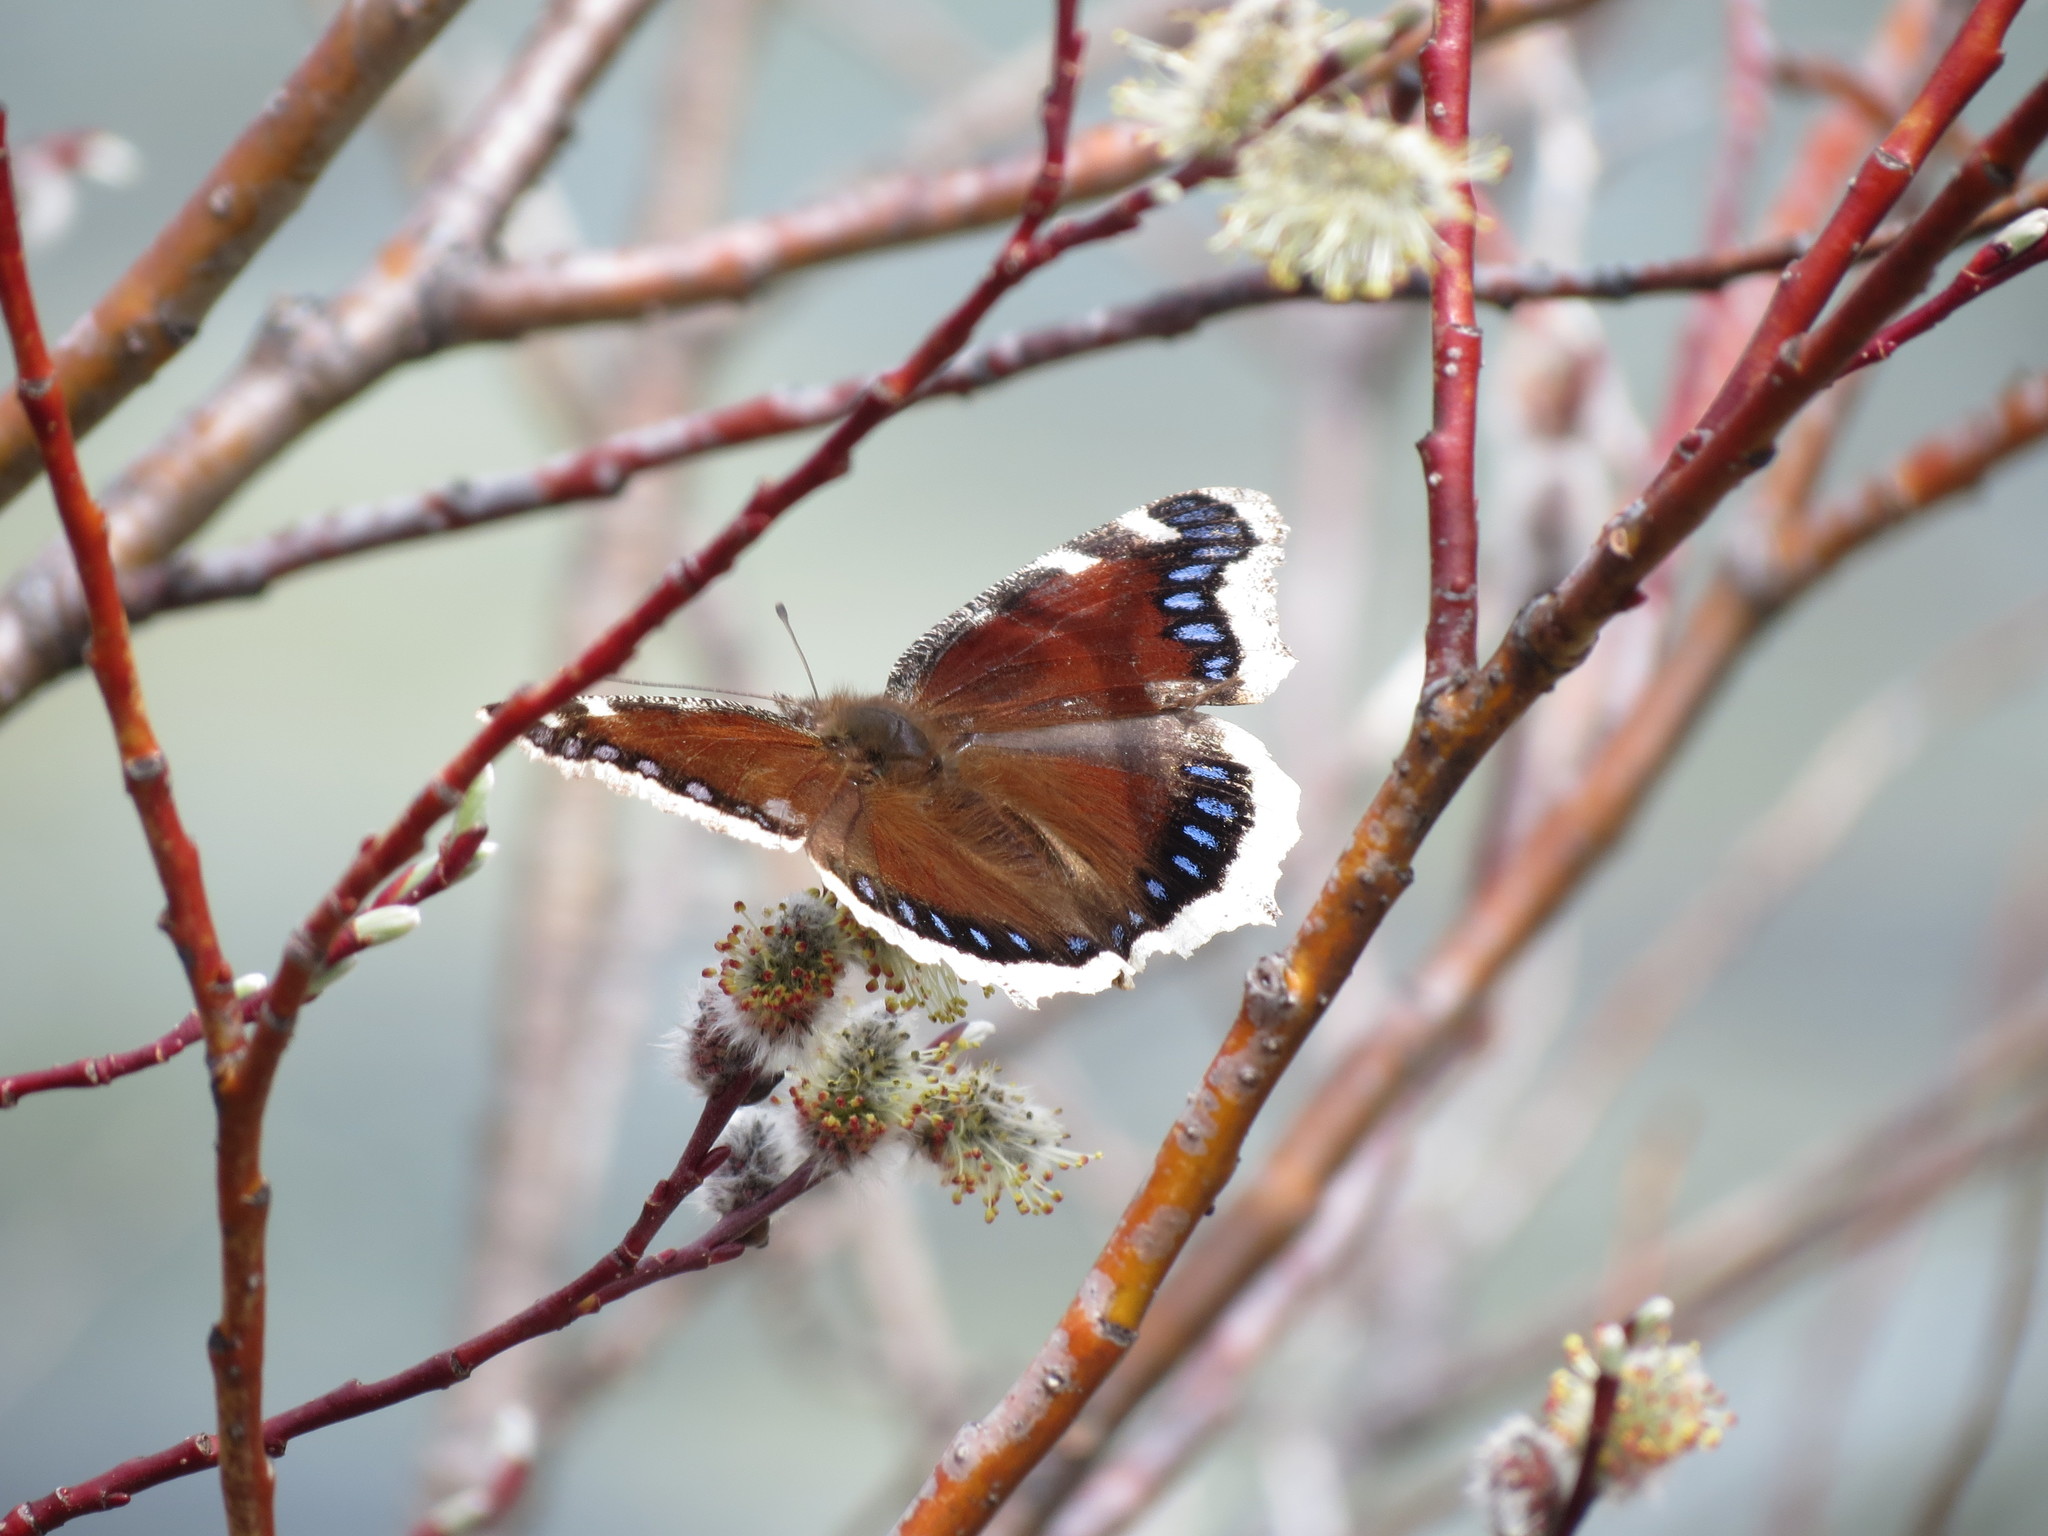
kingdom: Animalia
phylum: Arthropoda
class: Insecta
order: Lepidoptera
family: Nymphalidae
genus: Nymphalis
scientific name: Nymphalis antiopa
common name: Camberwell beauty
